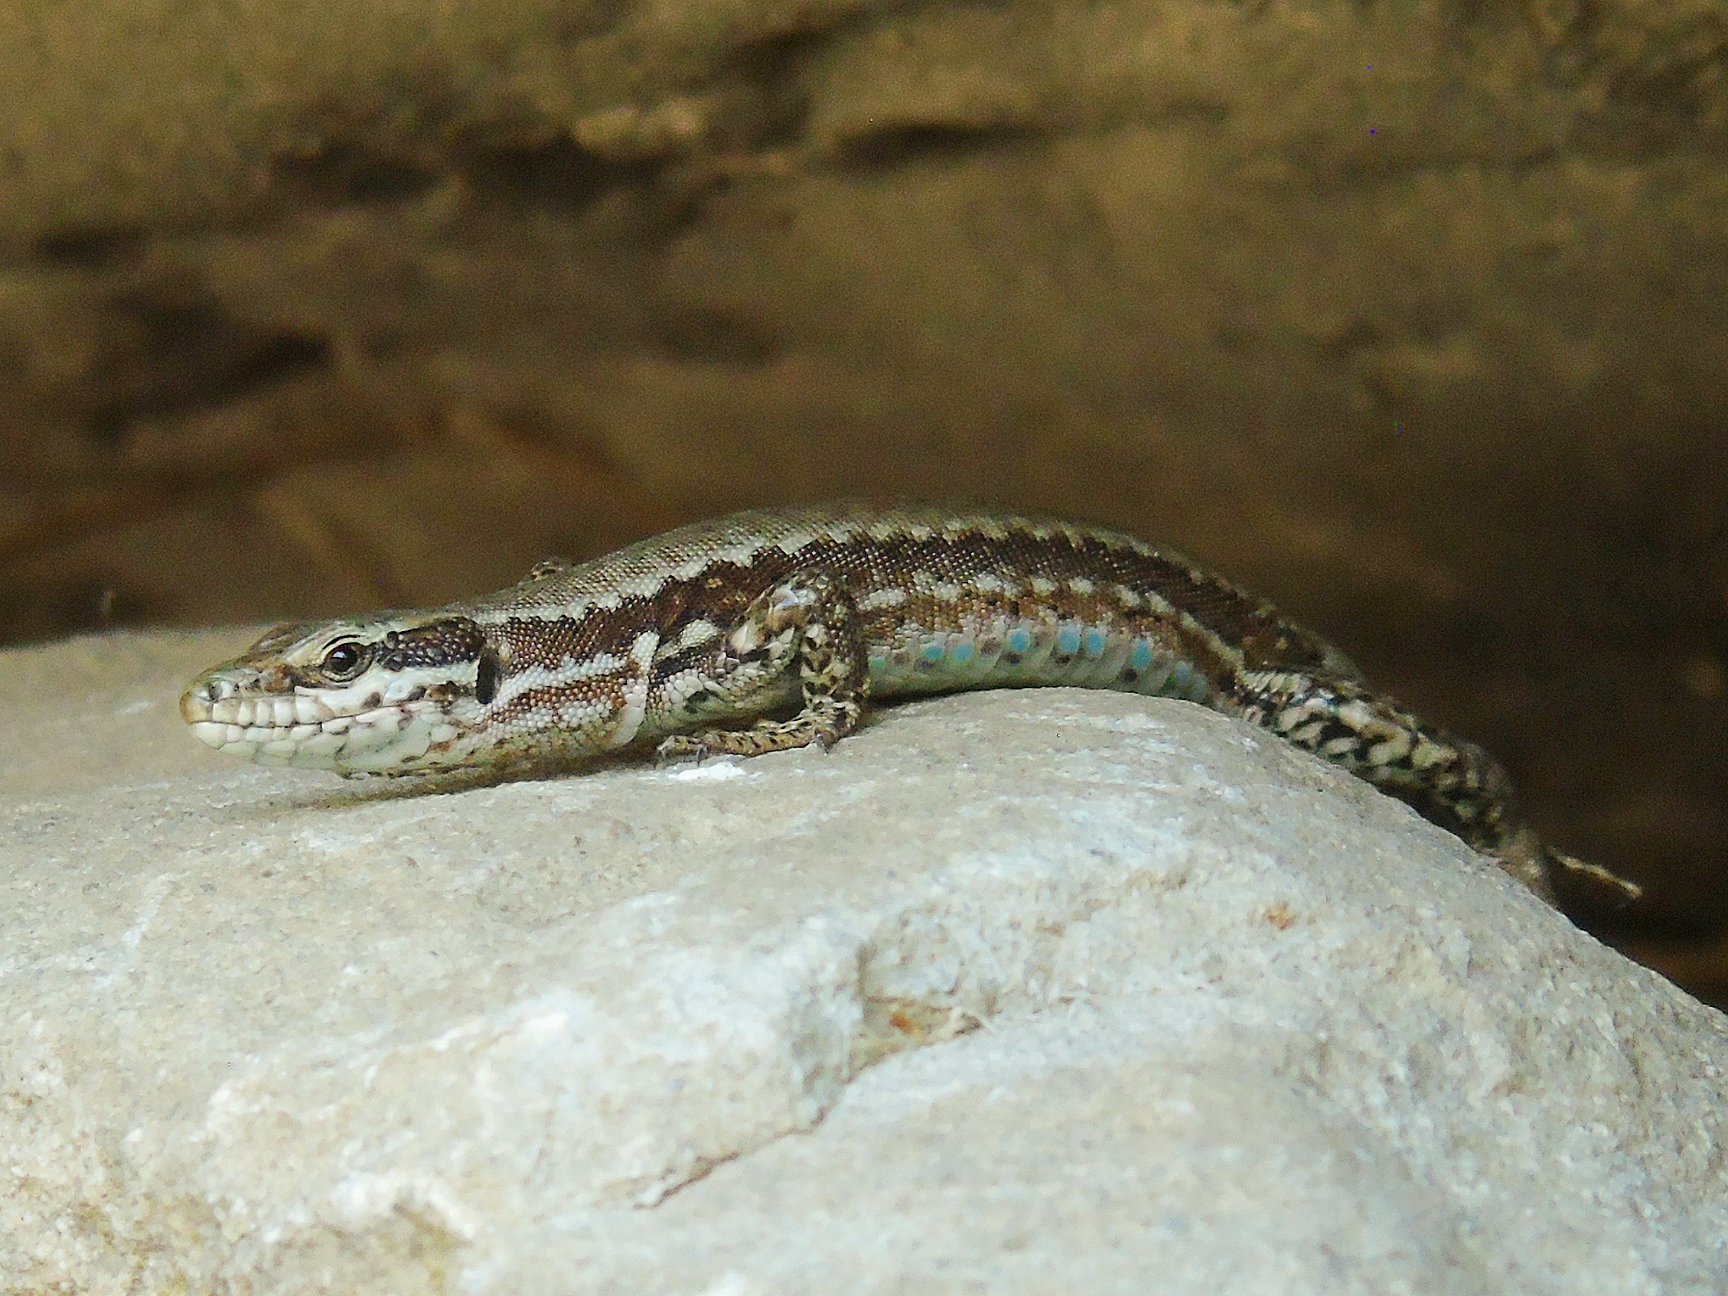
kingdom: Animalia
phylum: Chordata
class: Squamata
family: Lacertidae
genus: Podarcis
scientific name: Podarcis muralis
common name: Common wall lizard
